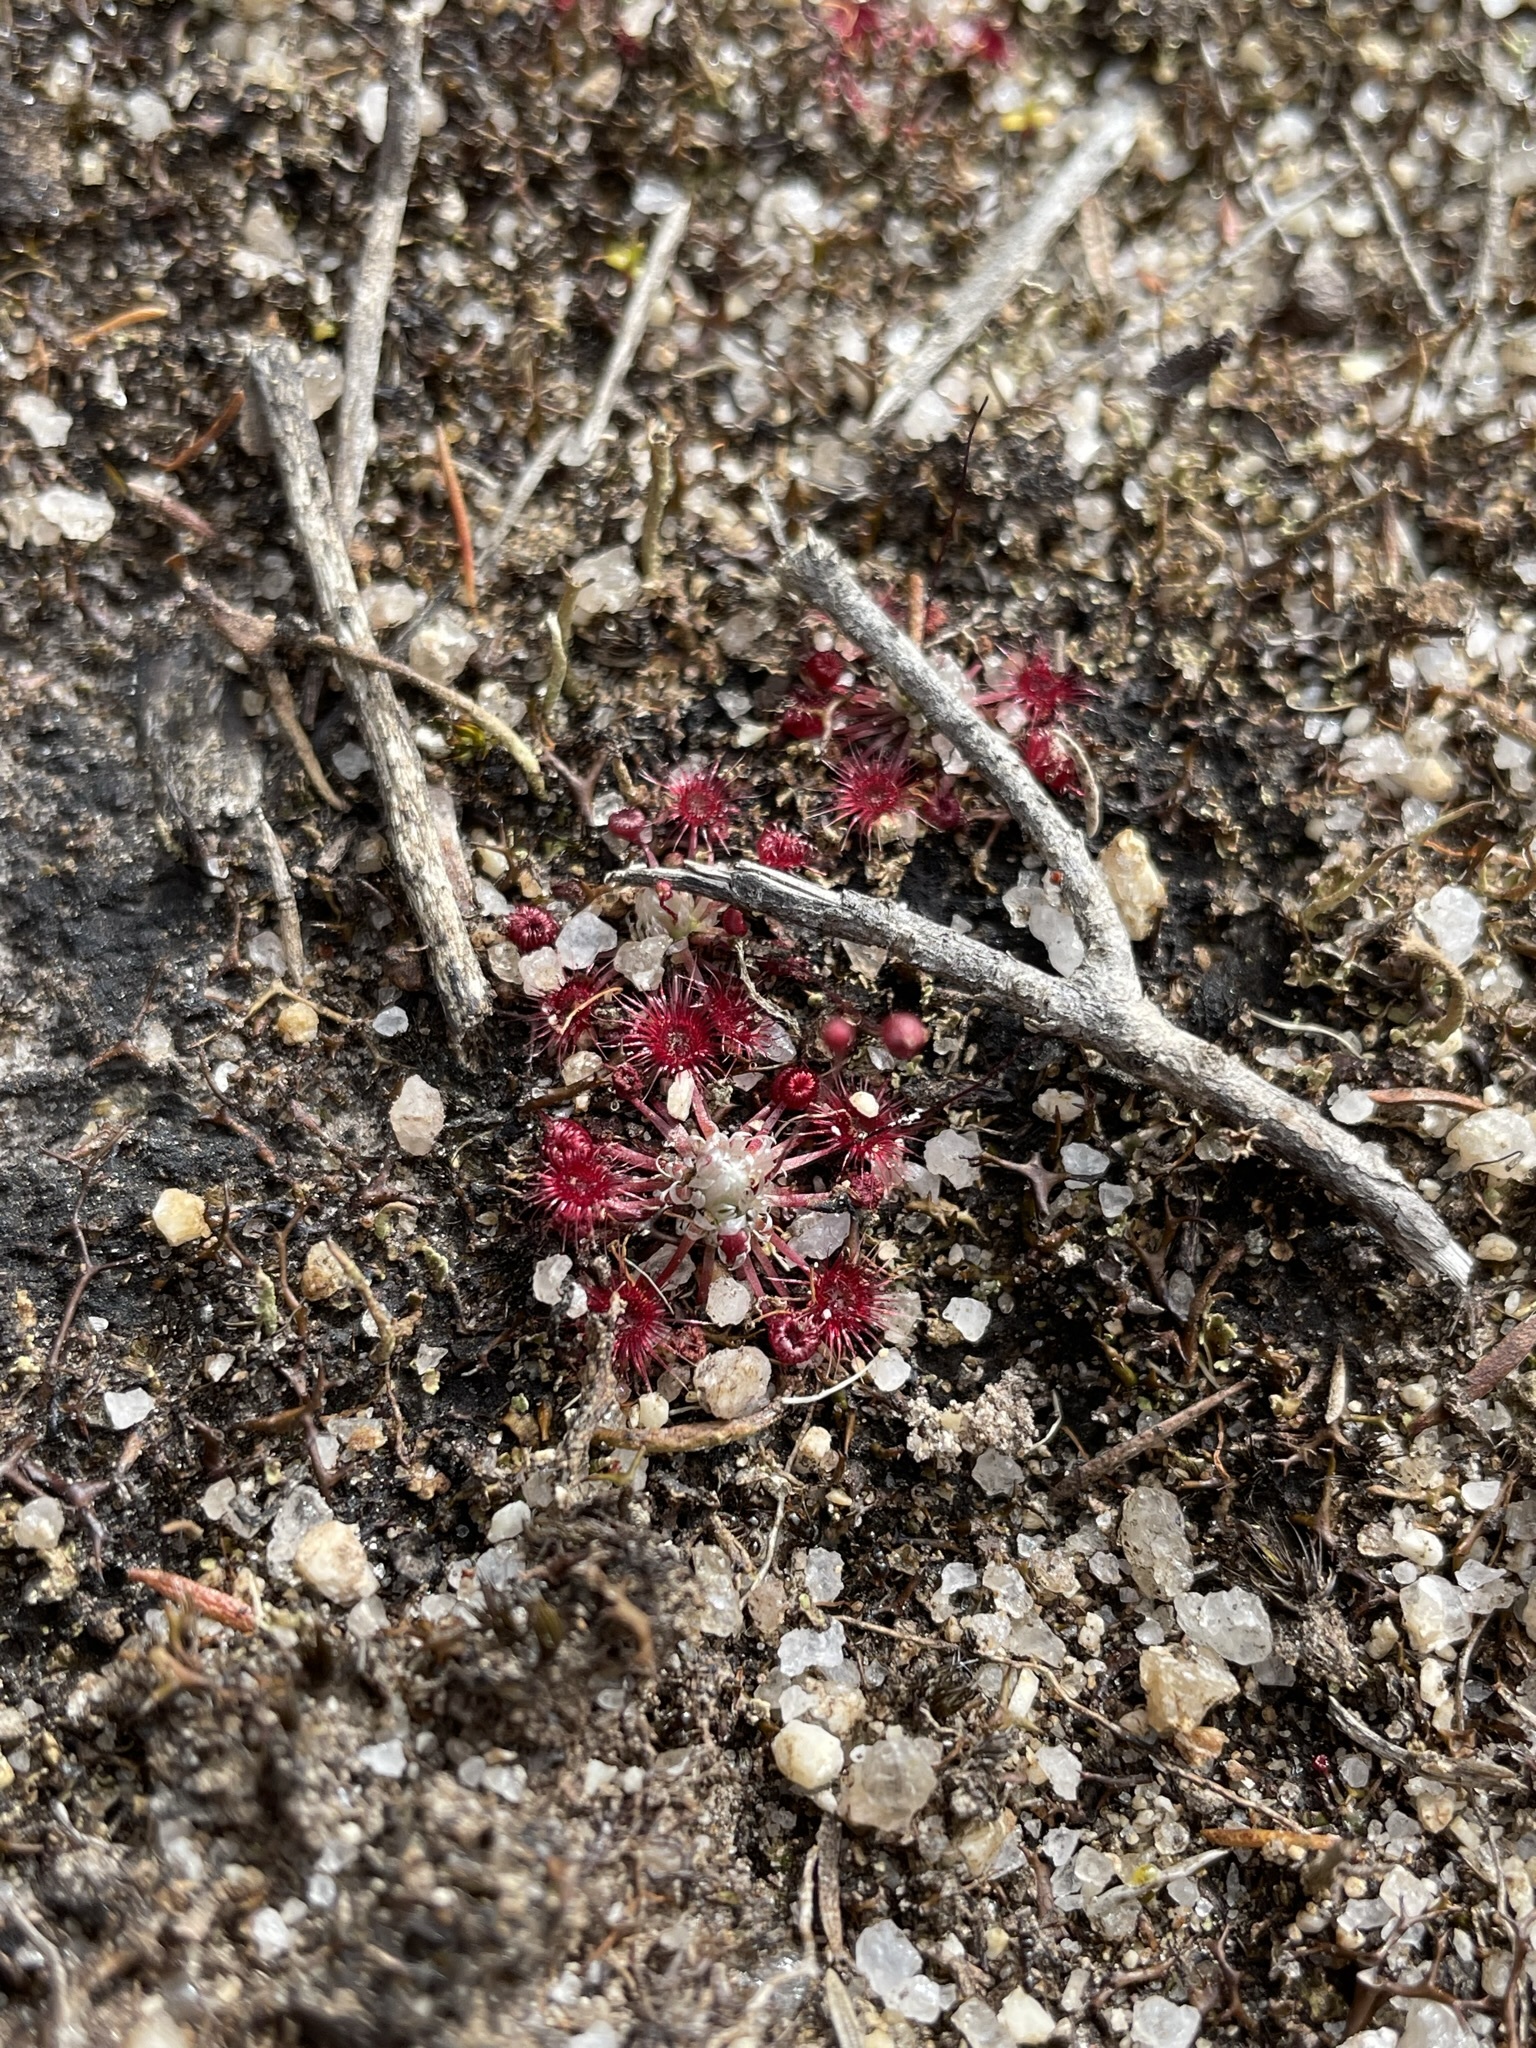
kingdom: Plantae
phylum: Tracheophyta
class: Magnoliopsida
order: Caryophyllales
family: Droseraceae
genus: Drosera
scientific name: Drosera pygmaea
